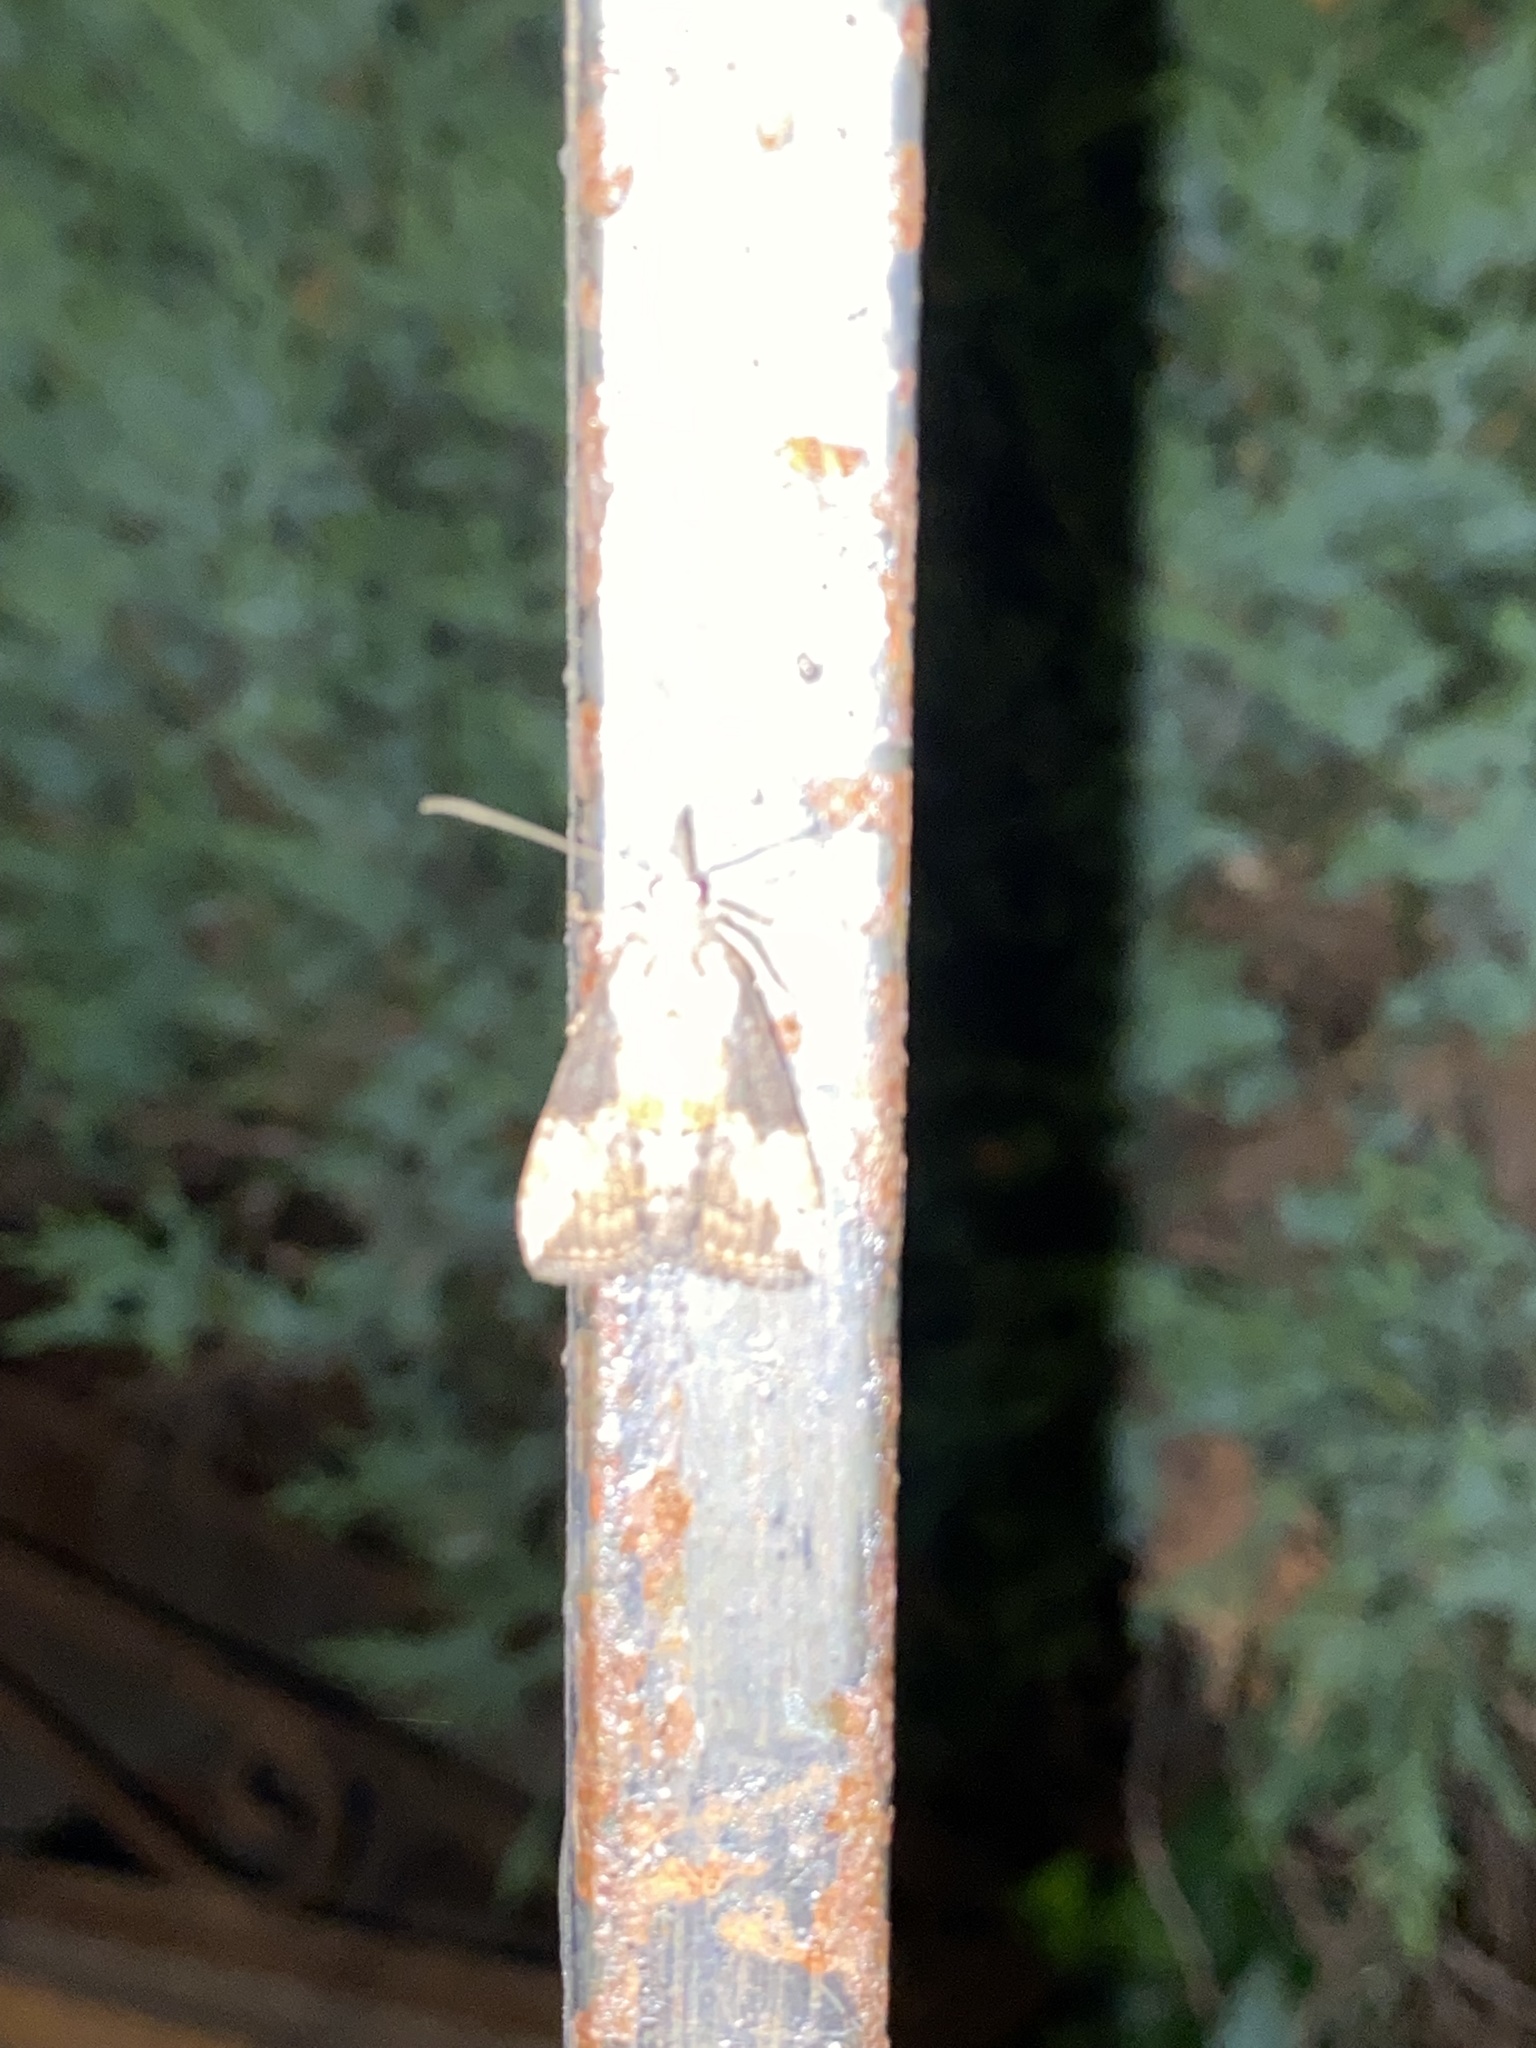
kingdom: Animalia
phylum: Arthropoda
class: Insecta
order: Lepidoptera
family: Erebidae
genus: Hypena
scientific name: Hypena scabra
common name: Green cloverworm
